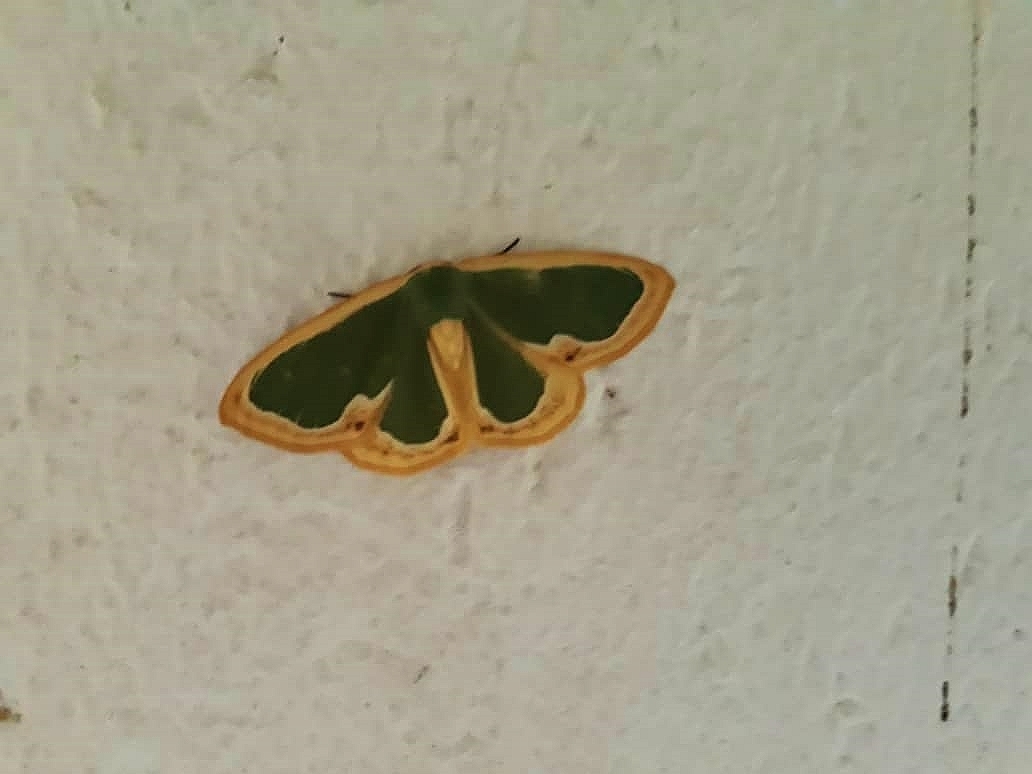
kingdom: Animalia
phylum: Arthropoda
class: Insecta
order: Lepidoptera
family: Geometridae
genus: Omphax
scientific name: Omphax shorti
